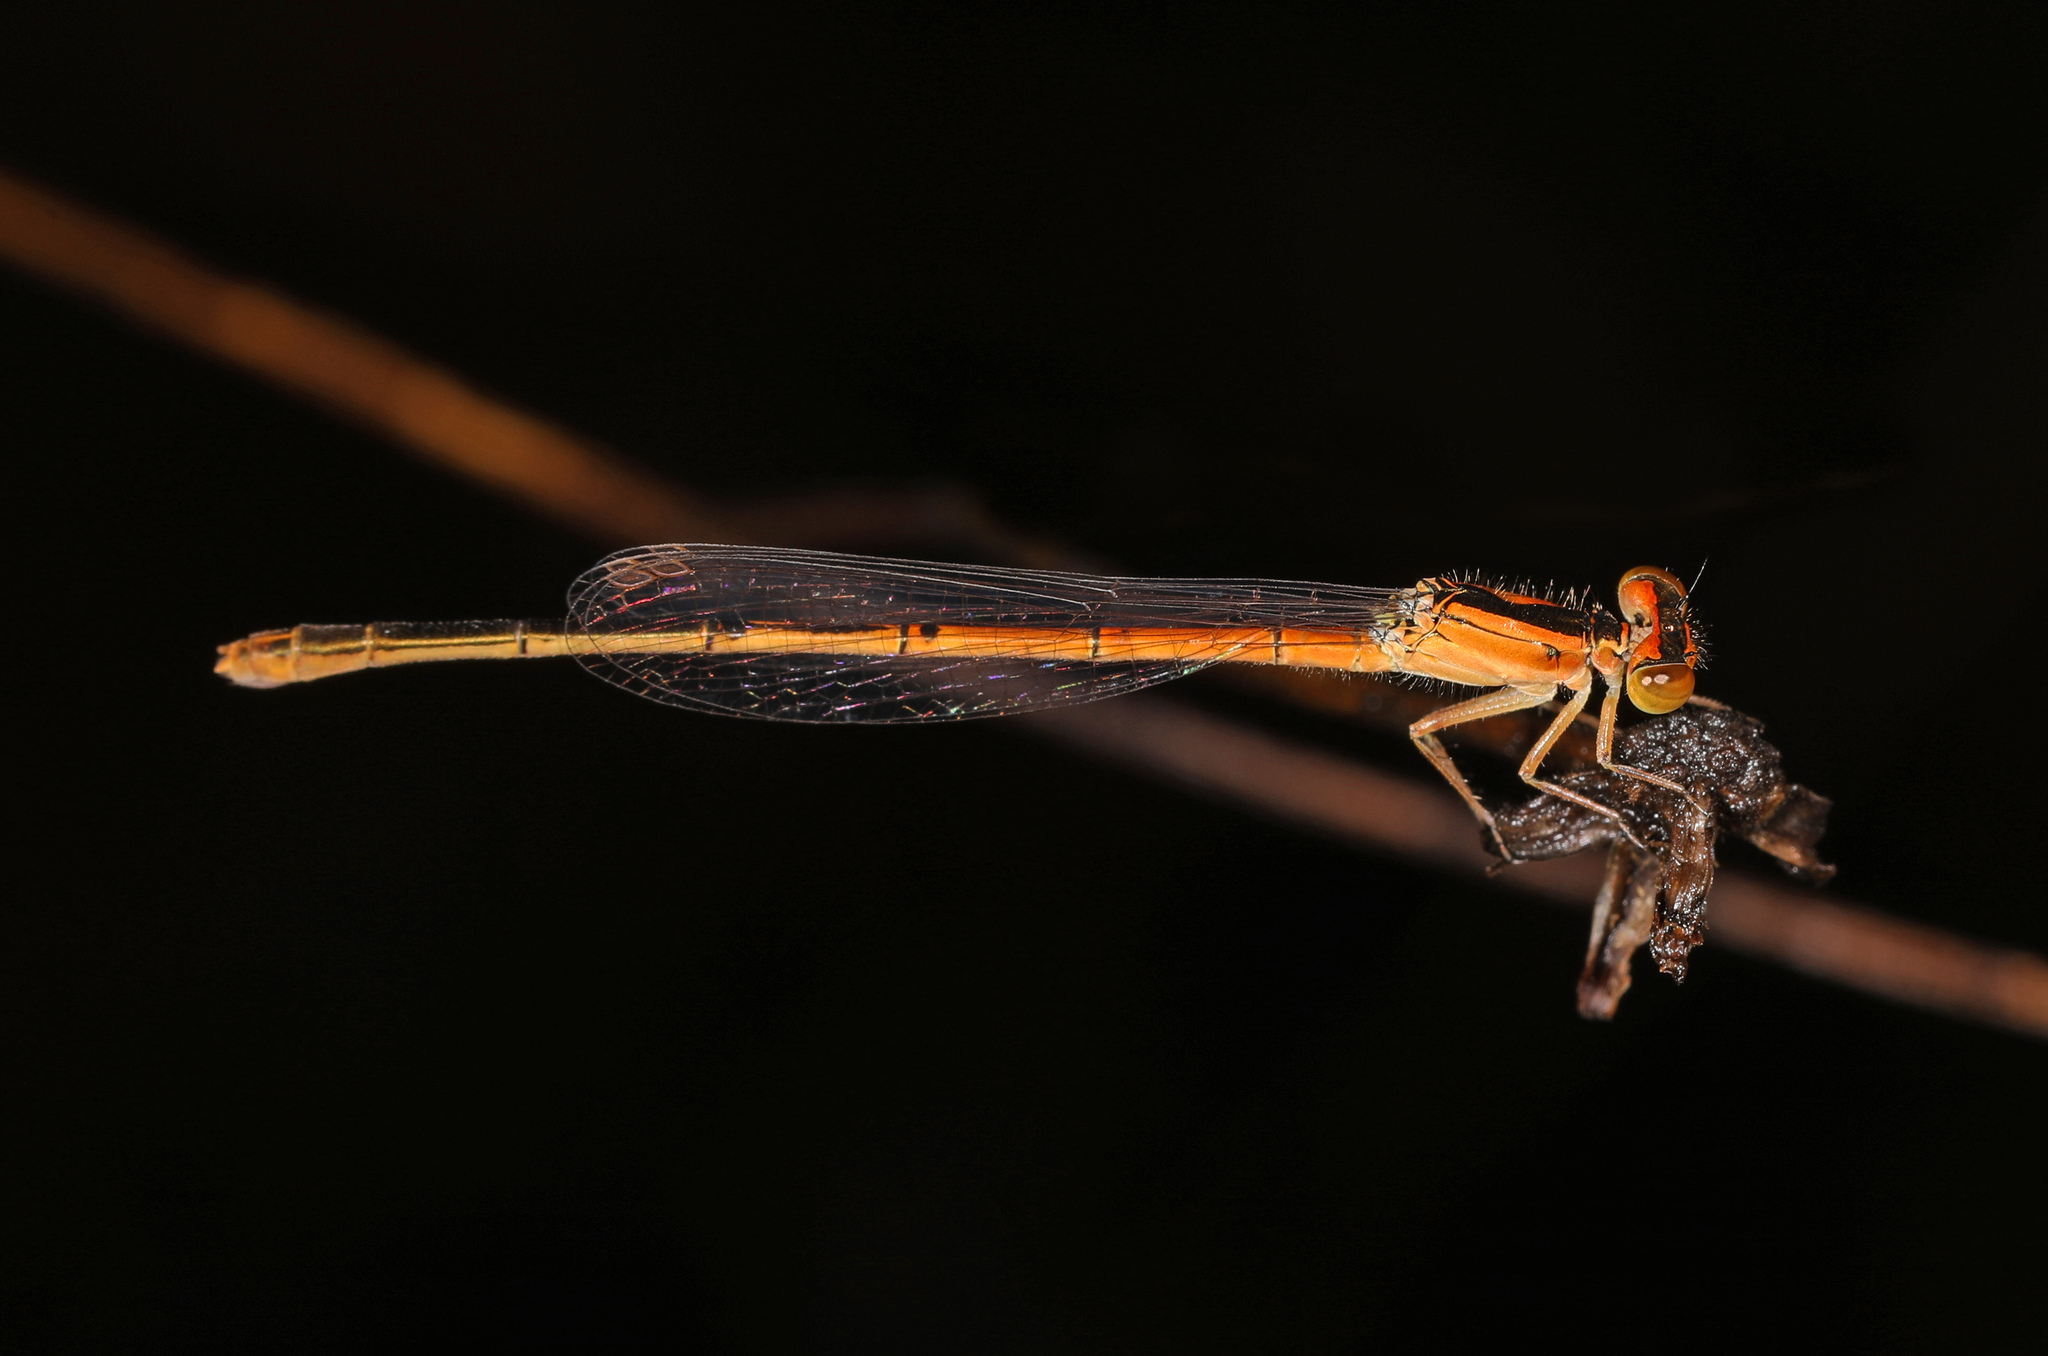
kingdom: Animalia
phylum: Arthropoda
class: Insecta
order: Odonata
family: Coenagrionidae
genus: Ischnura
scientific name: Ischnura hastata
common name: Citrine forktail
